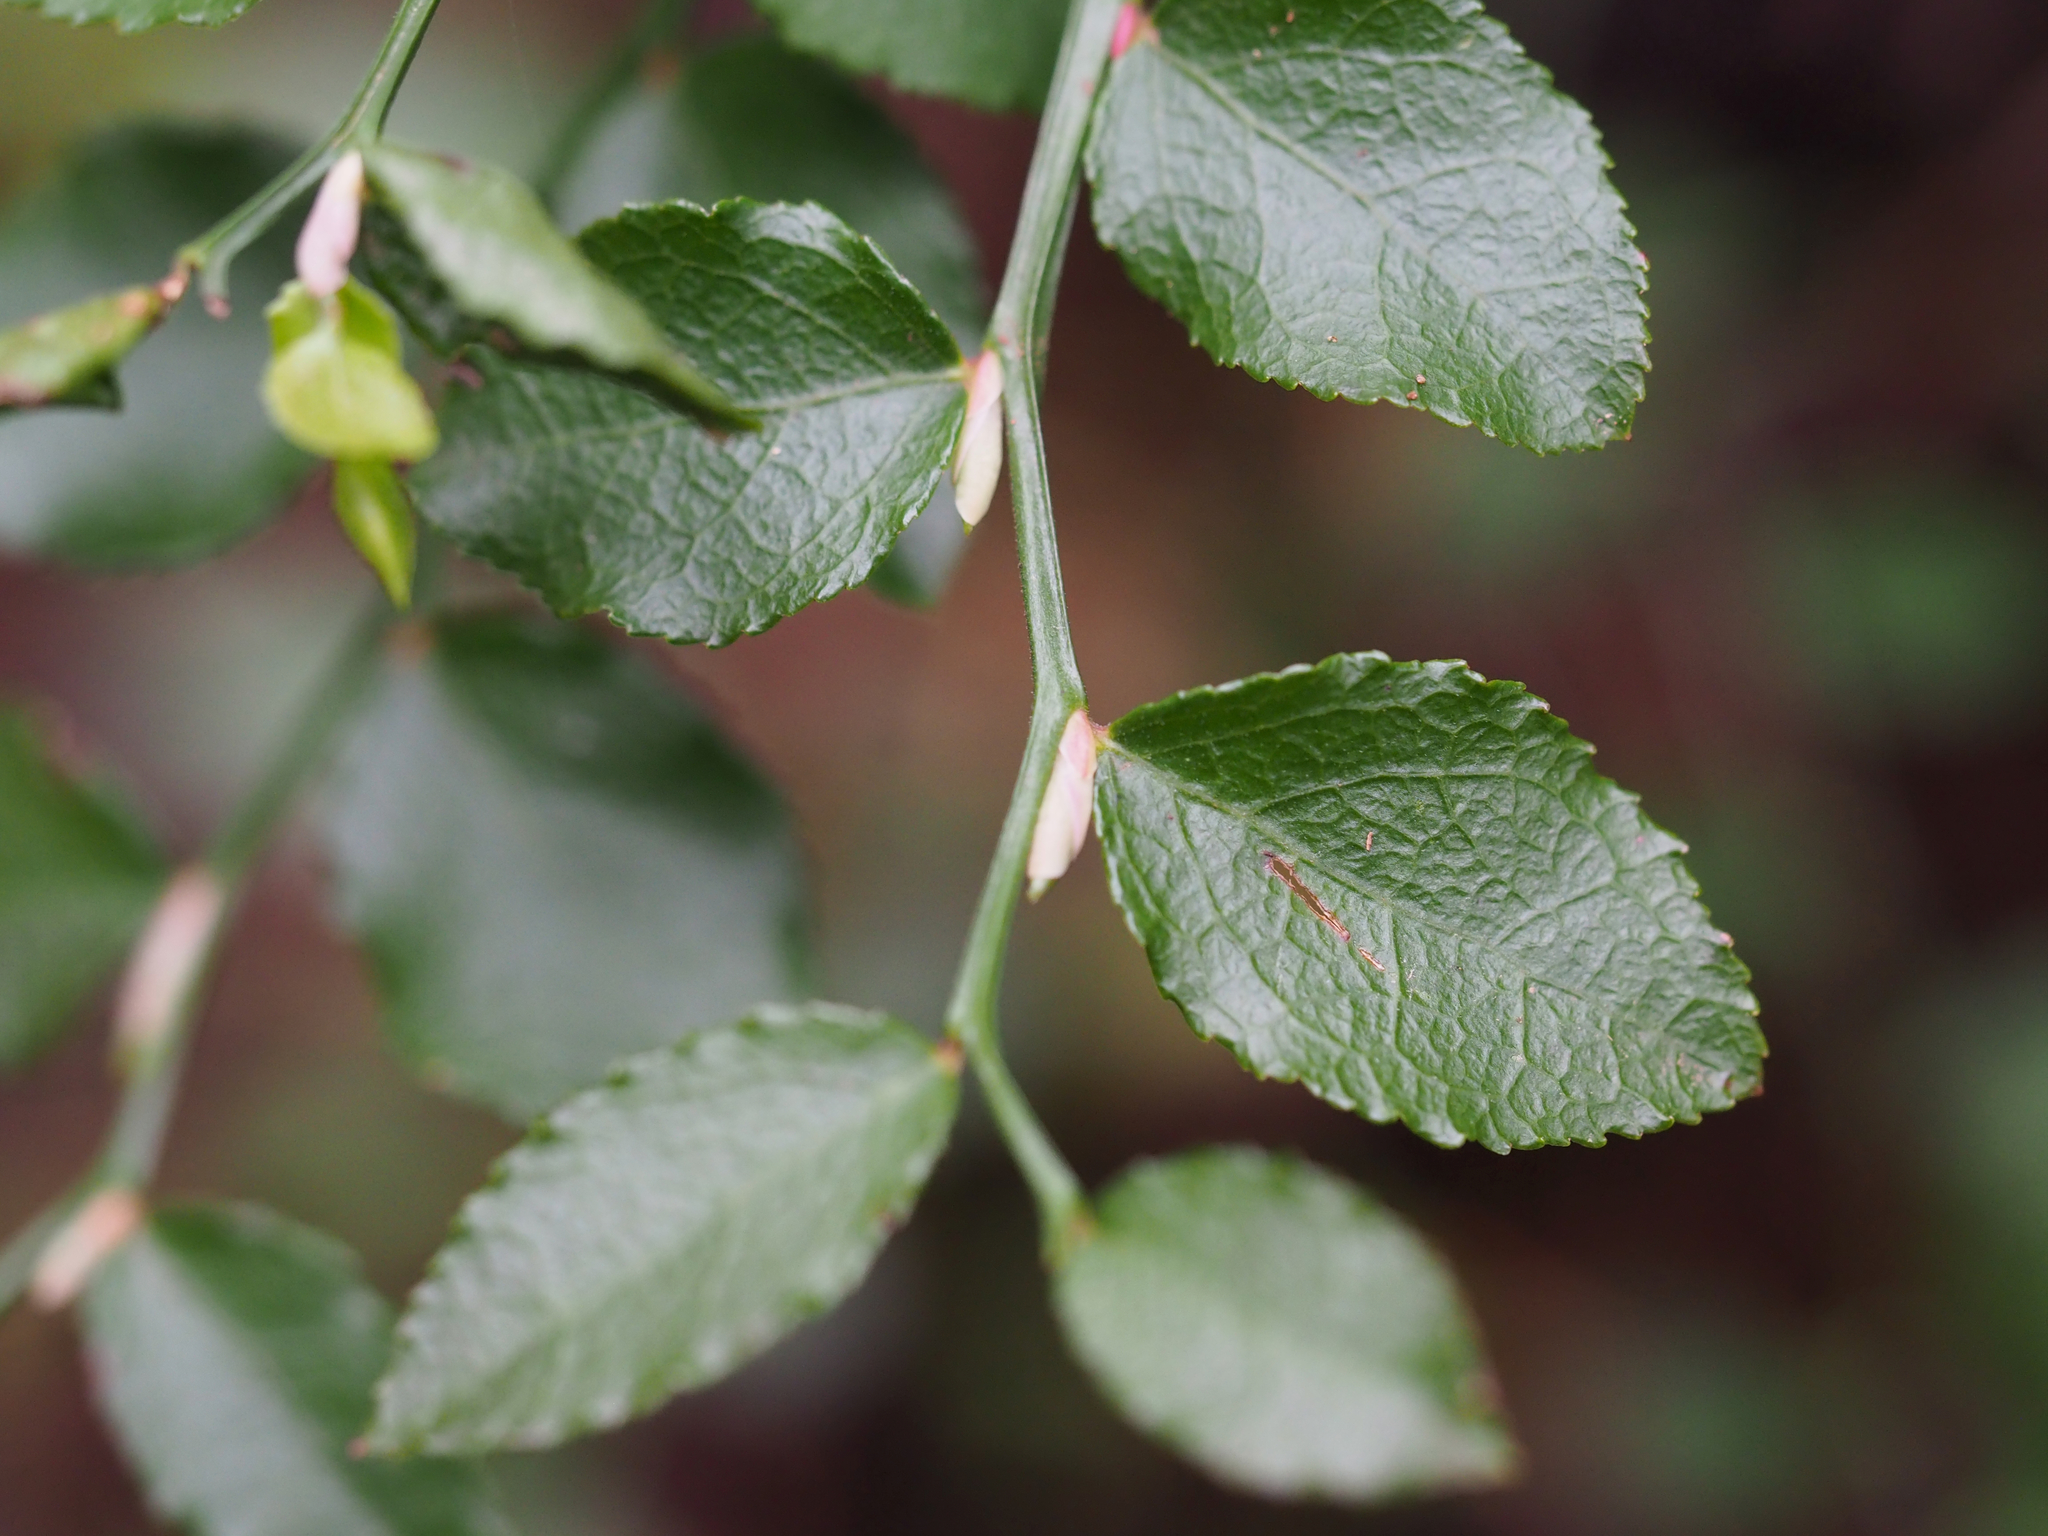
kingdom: Plantae
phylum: Tracheophyta
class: Magnoliopsida
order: Ericales
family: Ericaceae
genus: Vaccinium
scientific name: Vaccinium parvifolium
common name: Red-huckleberry
